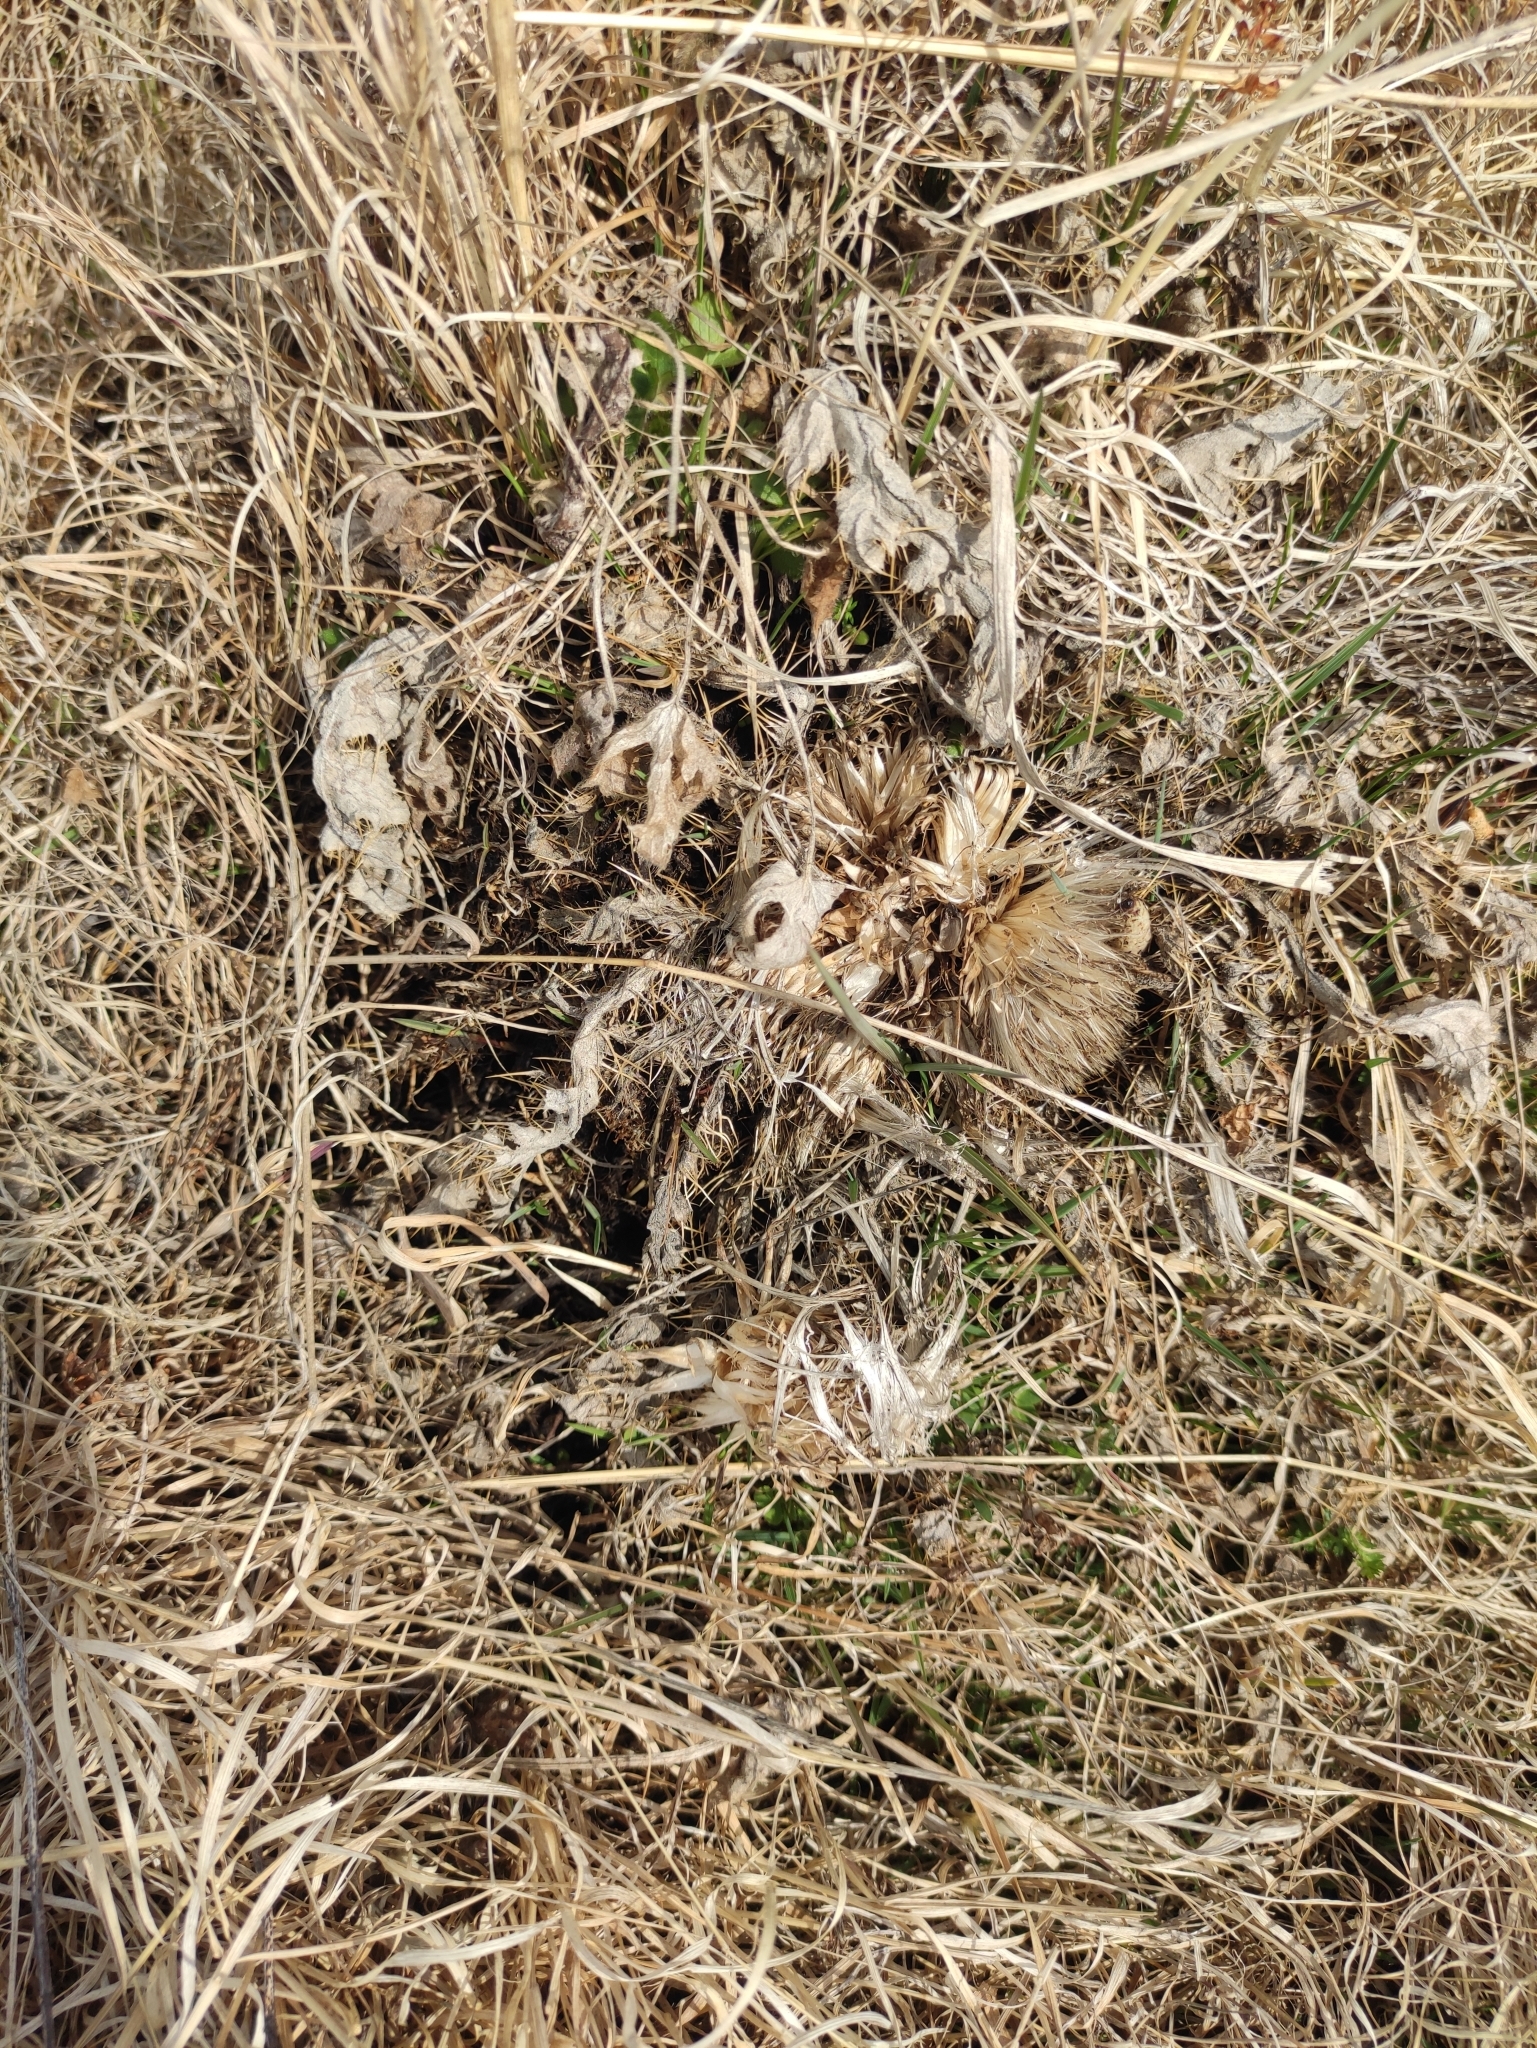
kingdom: Plantae
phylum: Tracheophyta
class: Magnoliopsida
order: Asterales
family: Asteraceae
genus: Cirsium
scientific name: Cirsium esculentum
